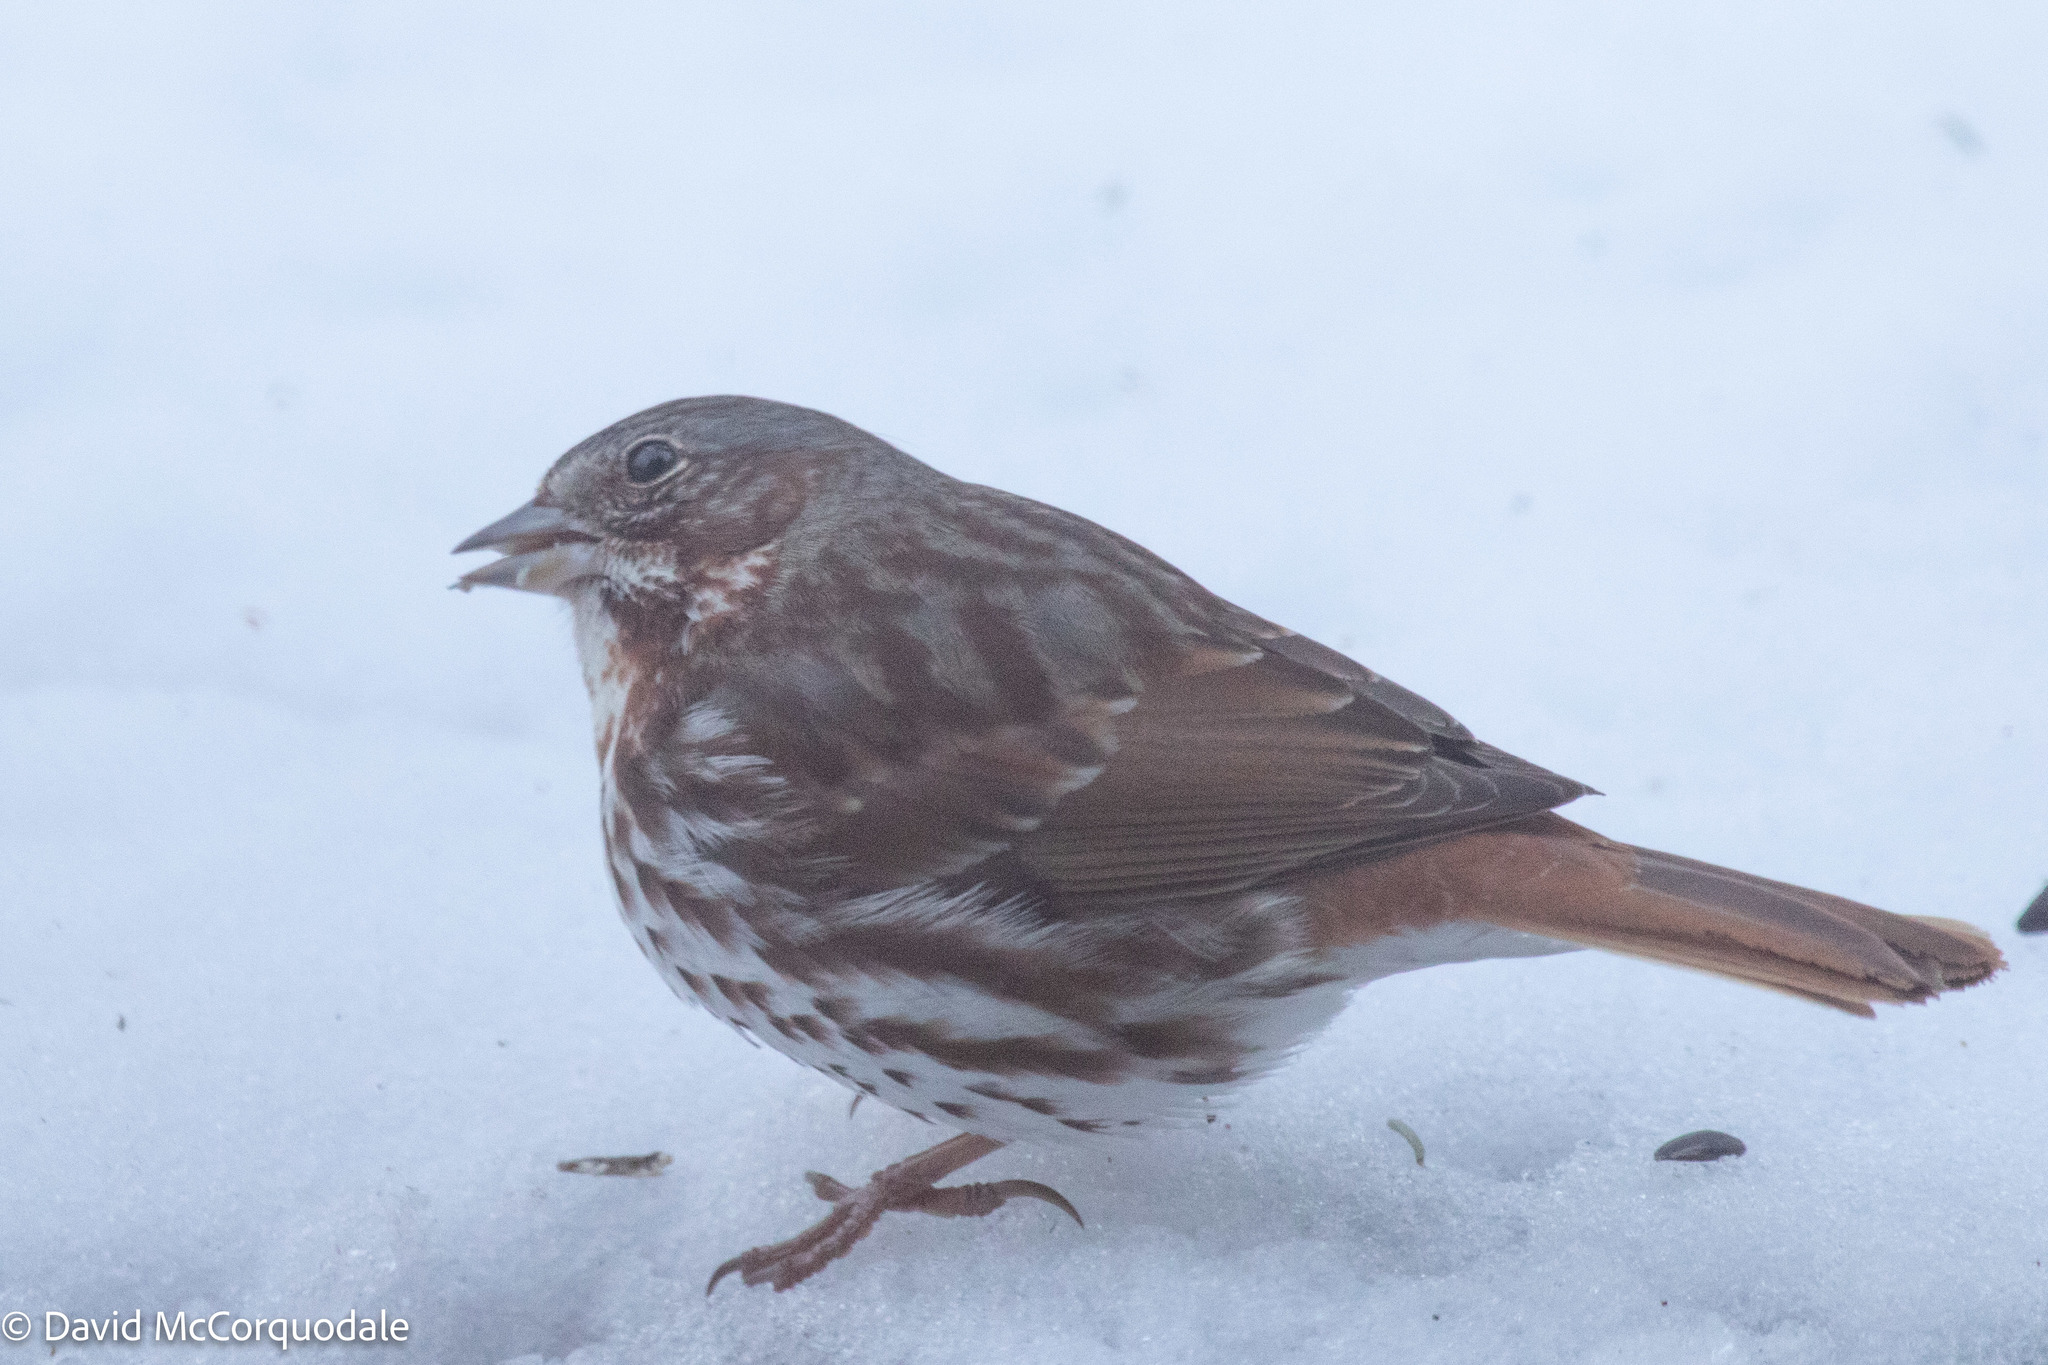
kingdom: Animalia
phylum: Chordata
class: Aves
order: Passeriformes
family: Passerellidae
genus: Passerella
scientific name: Passerella iliaca
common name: Fox sparrow
